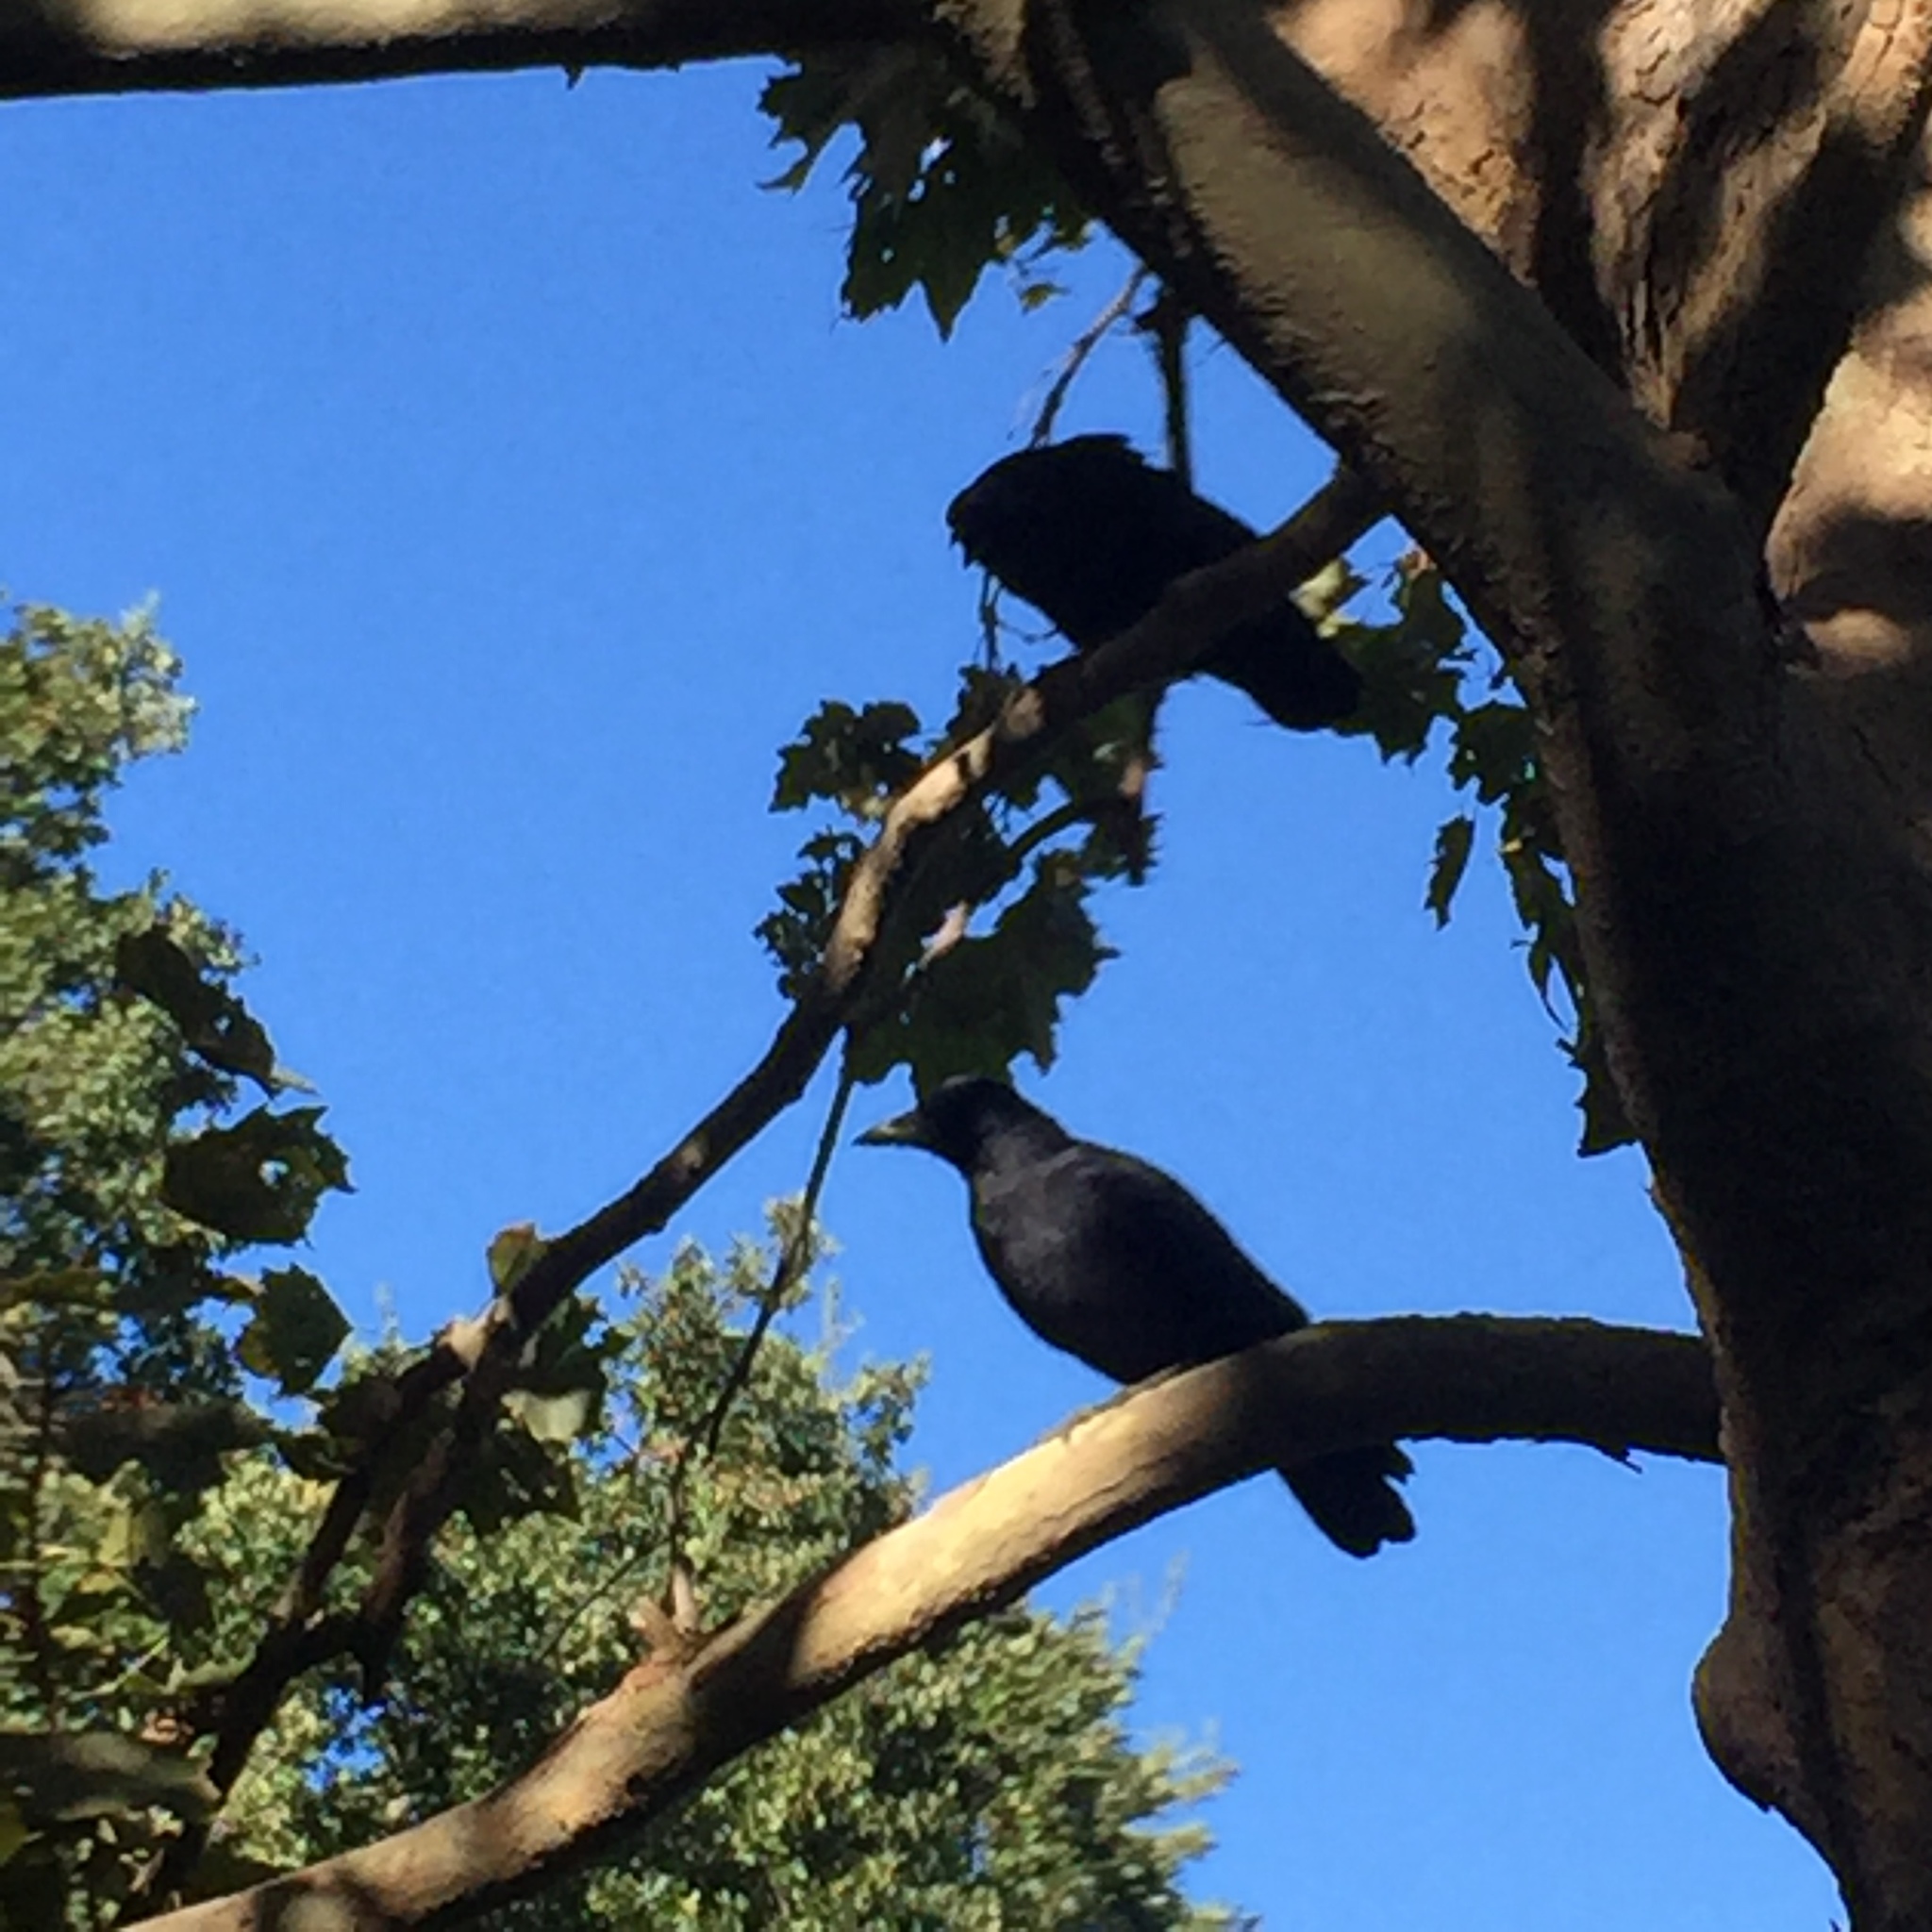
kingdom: Animalia
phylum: Chordata
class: Aves
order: Passeriformes
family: Corvidae
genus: Corvus
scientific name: Corvus brachyrhynchos
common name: American crow
